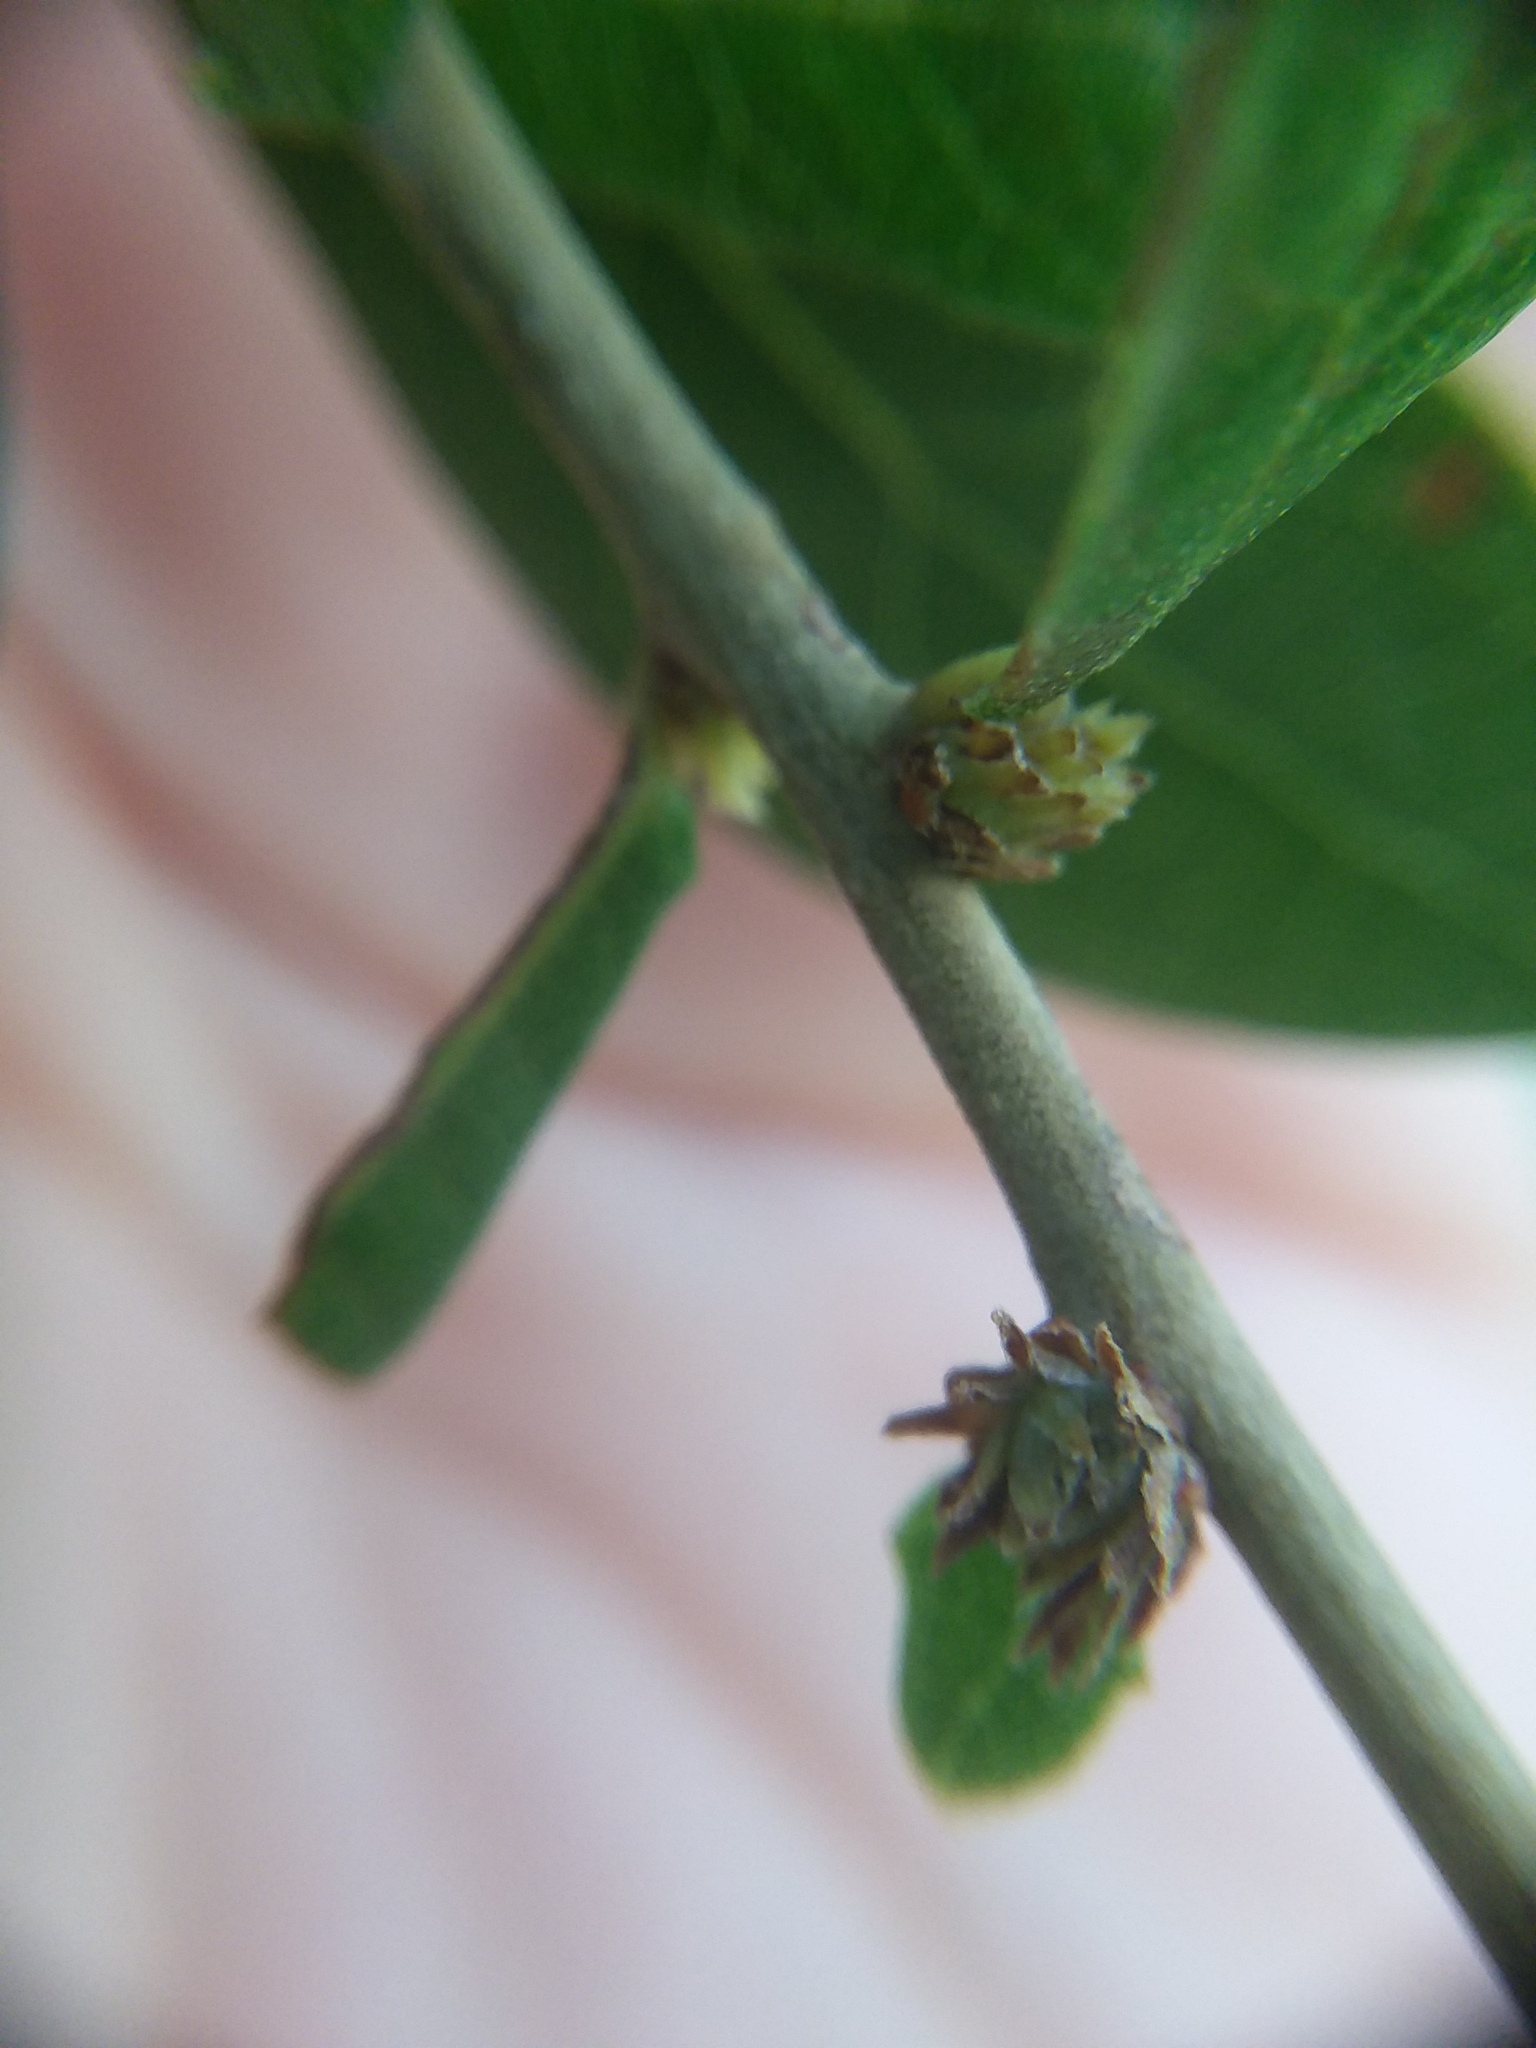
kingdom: Animalia
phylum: Arthropoda
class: Insecta
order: Hymenoptera
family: Cynipidae
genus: Andricus
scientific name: Andricus quercusfoliatus
